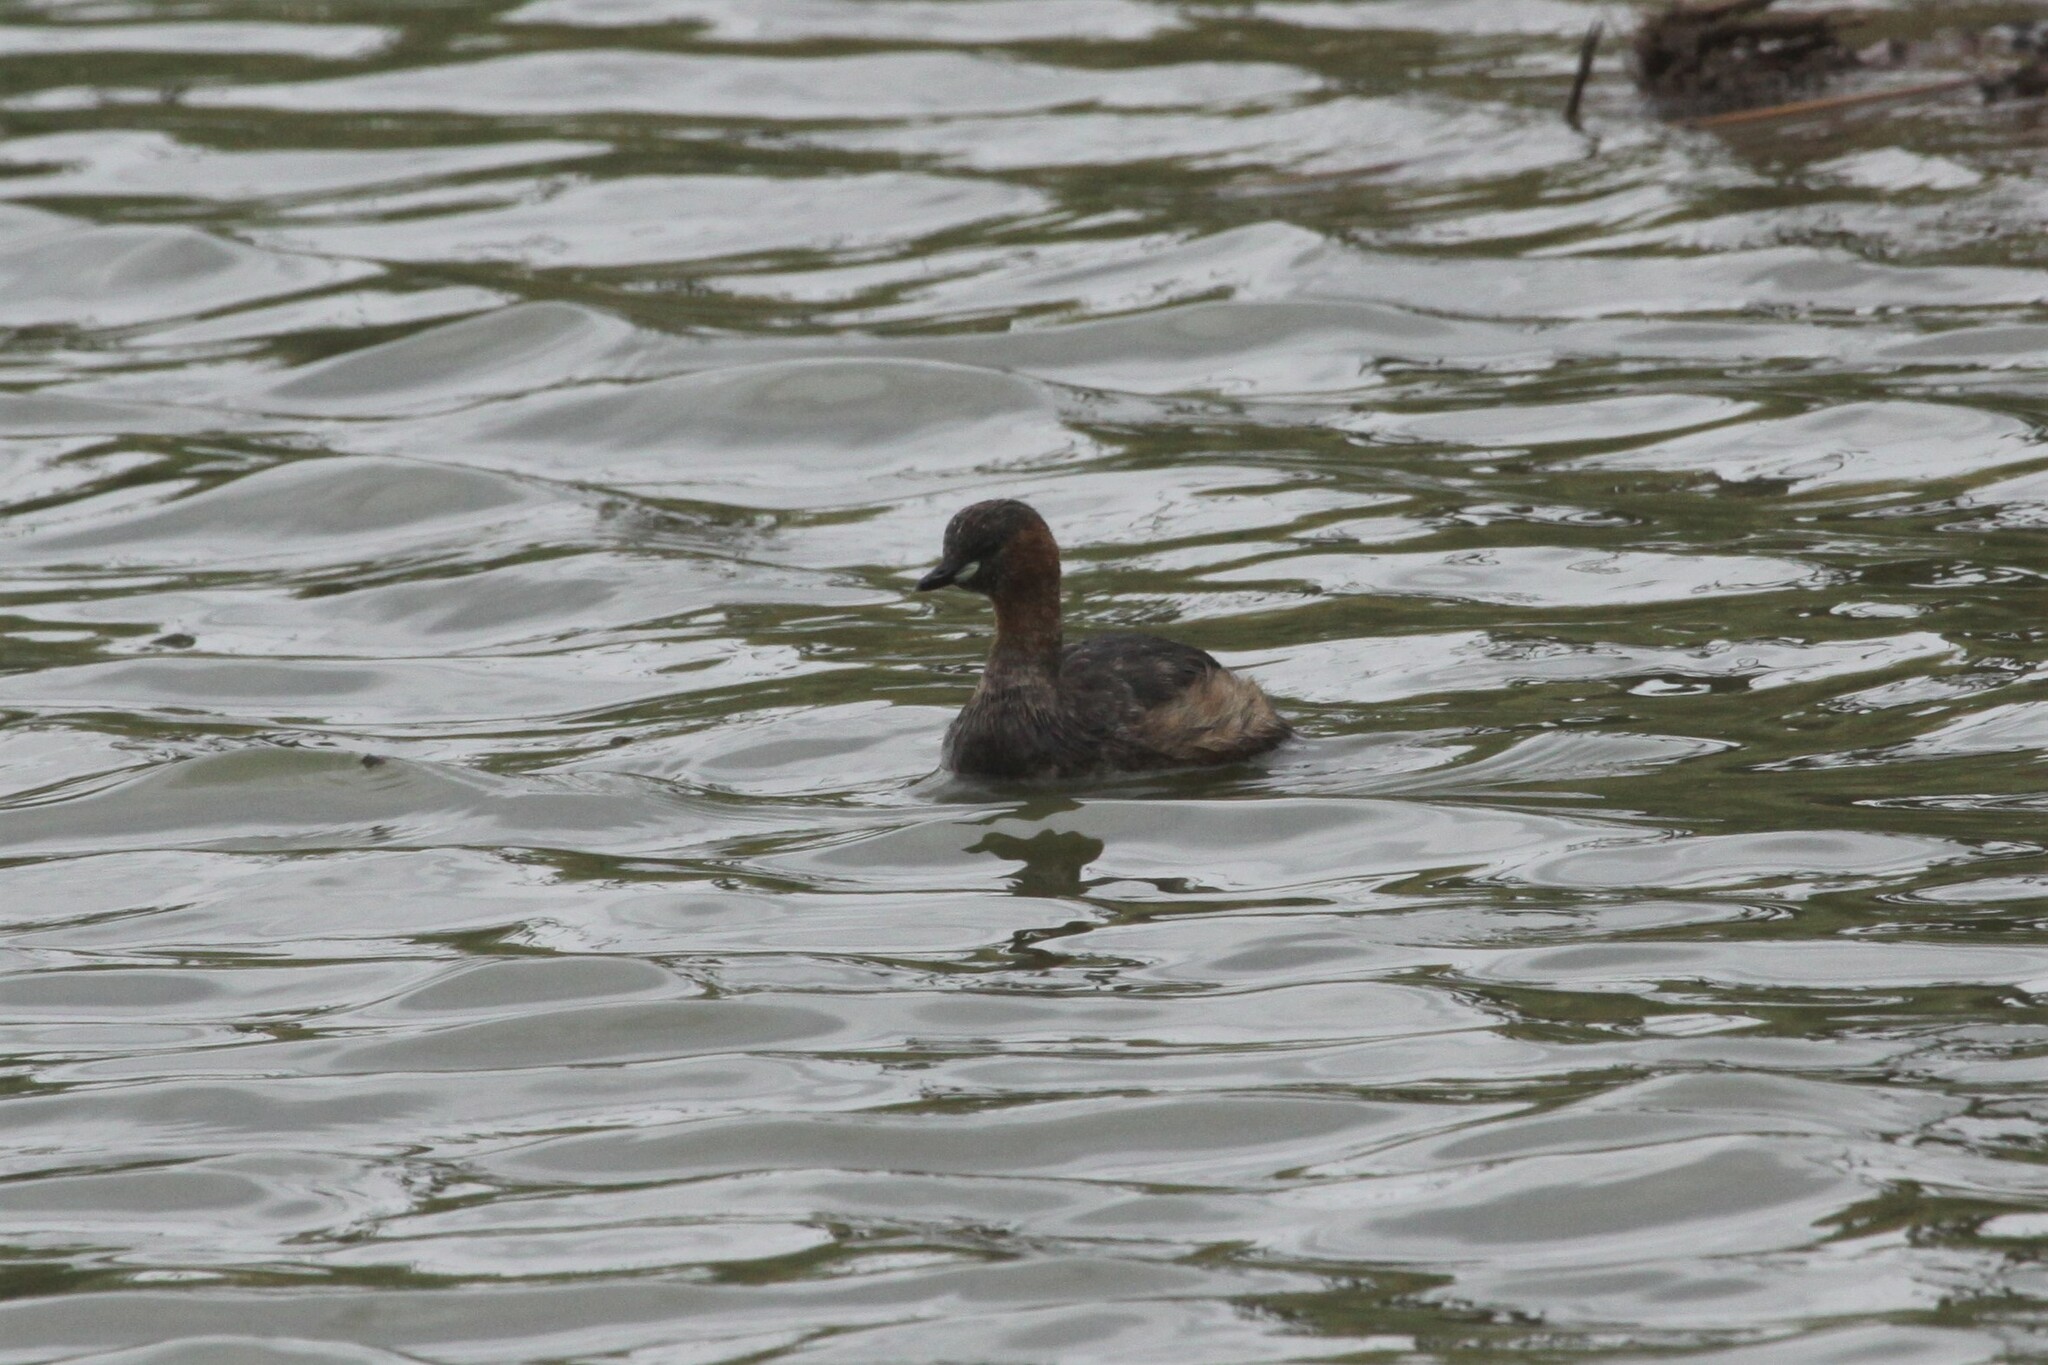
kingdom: Animalia
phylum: Chordata
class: Aves
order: Podicipediformes
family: Podicipedidae
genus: Tachybaptus
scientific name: Tachybaptus ruficollis
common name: Little grebe
